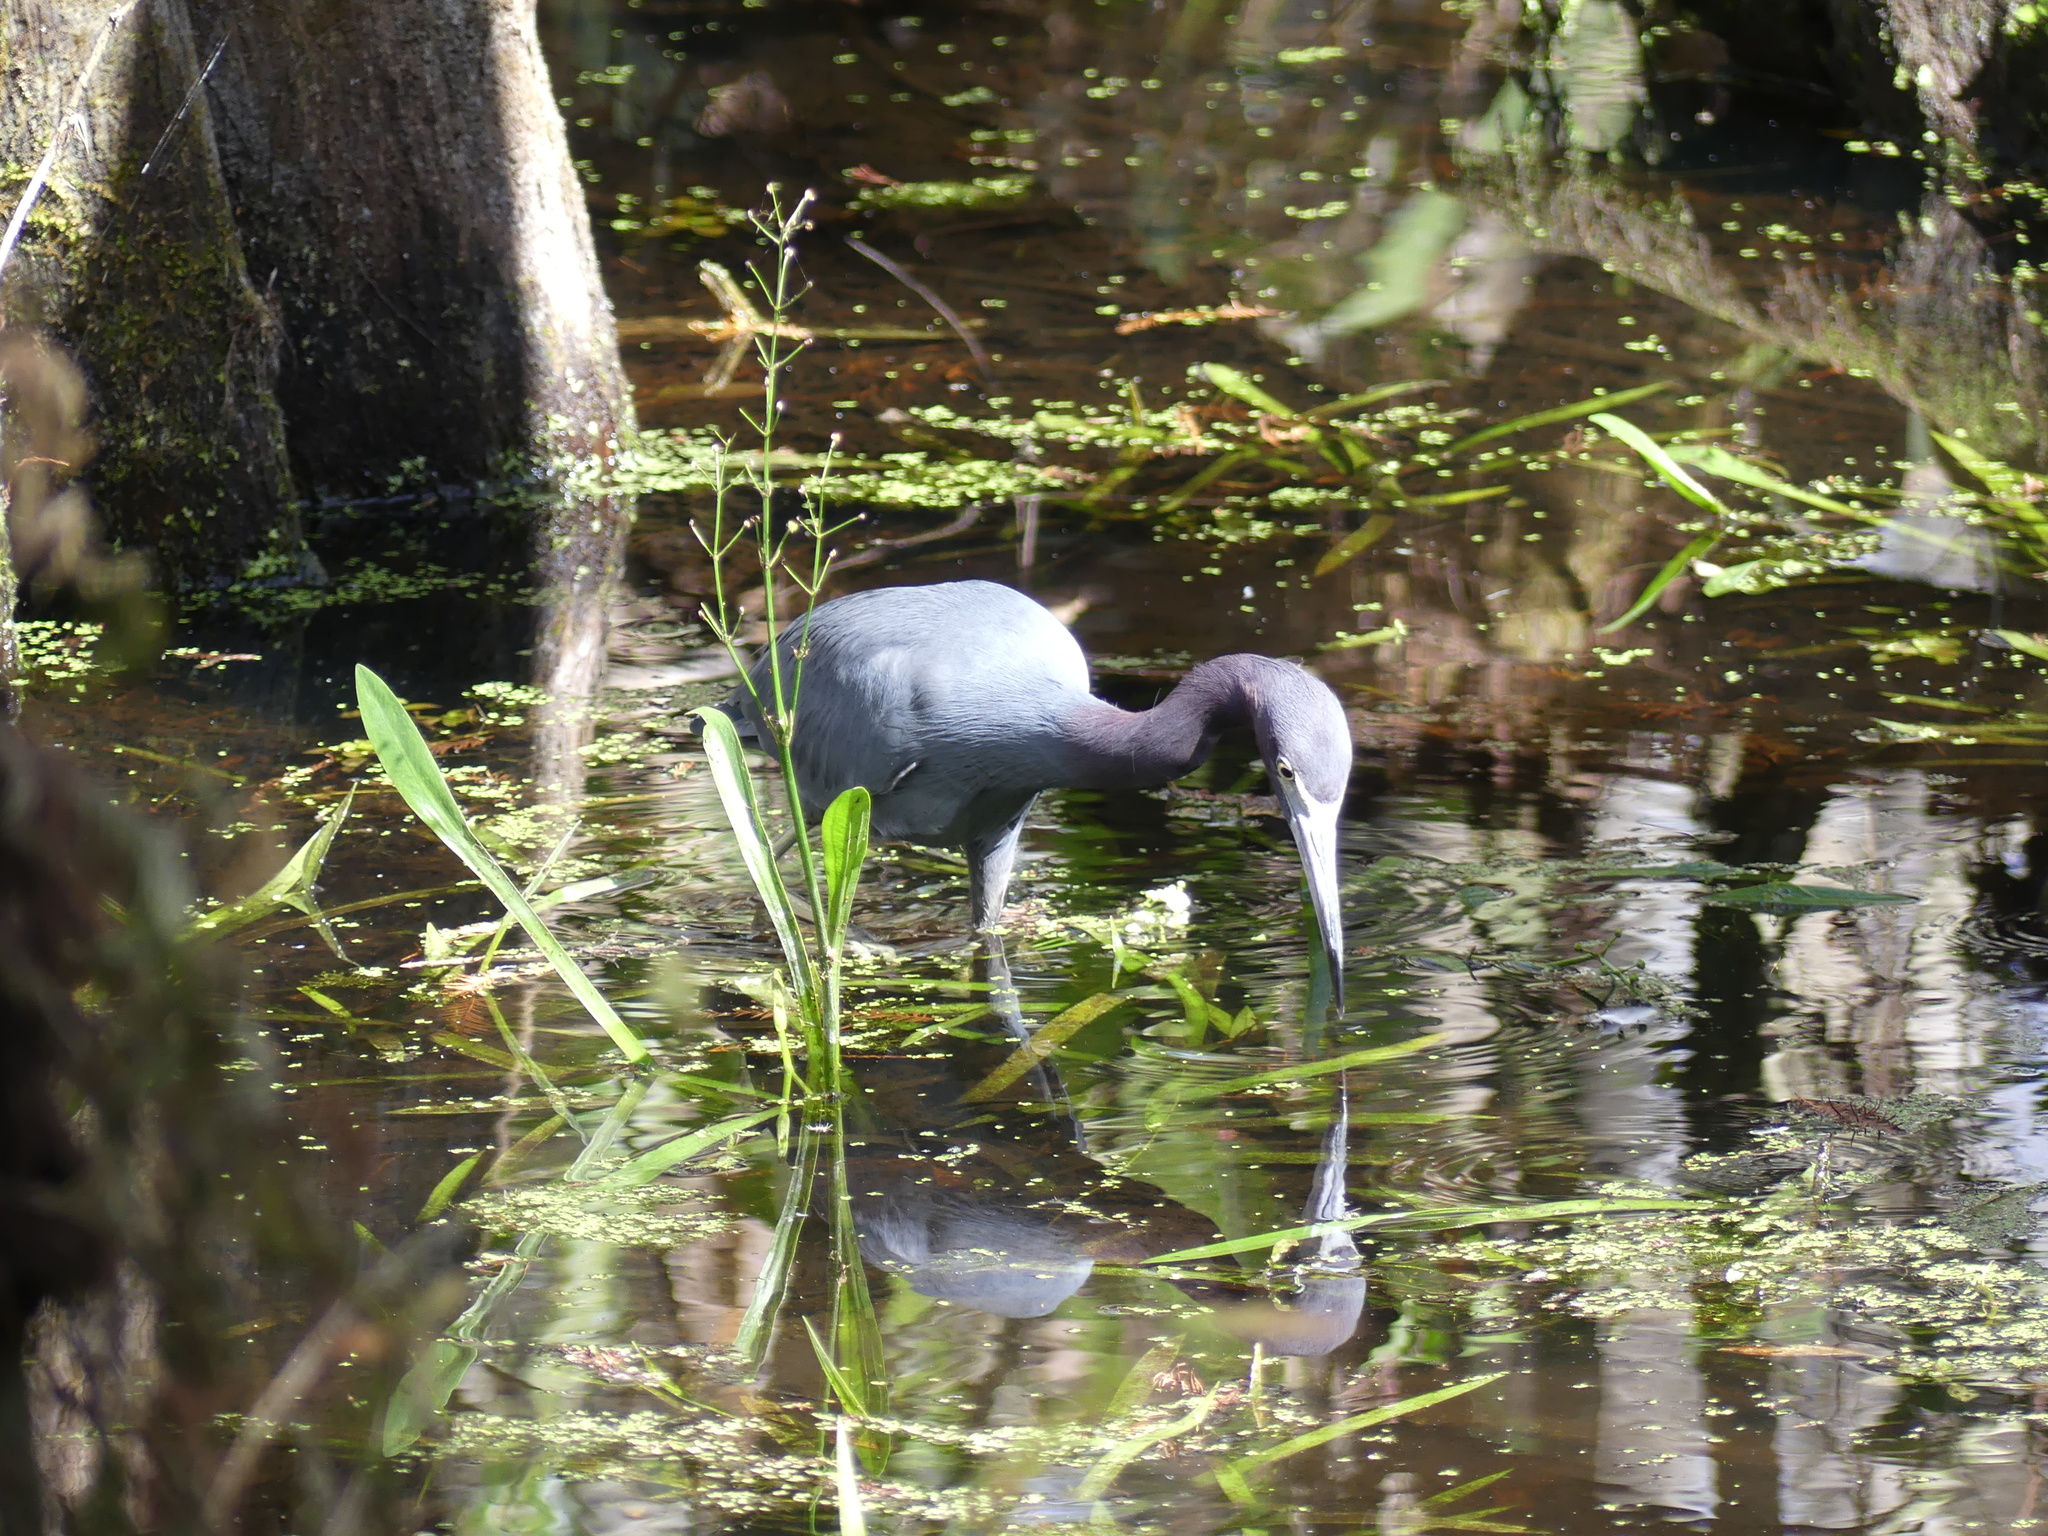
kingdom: Animalia
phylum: Chordata
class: Aves
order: Pelecaniformes
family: Ardeidae
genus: Egretta
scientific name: Egretta caerulea
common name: Little blue heron
